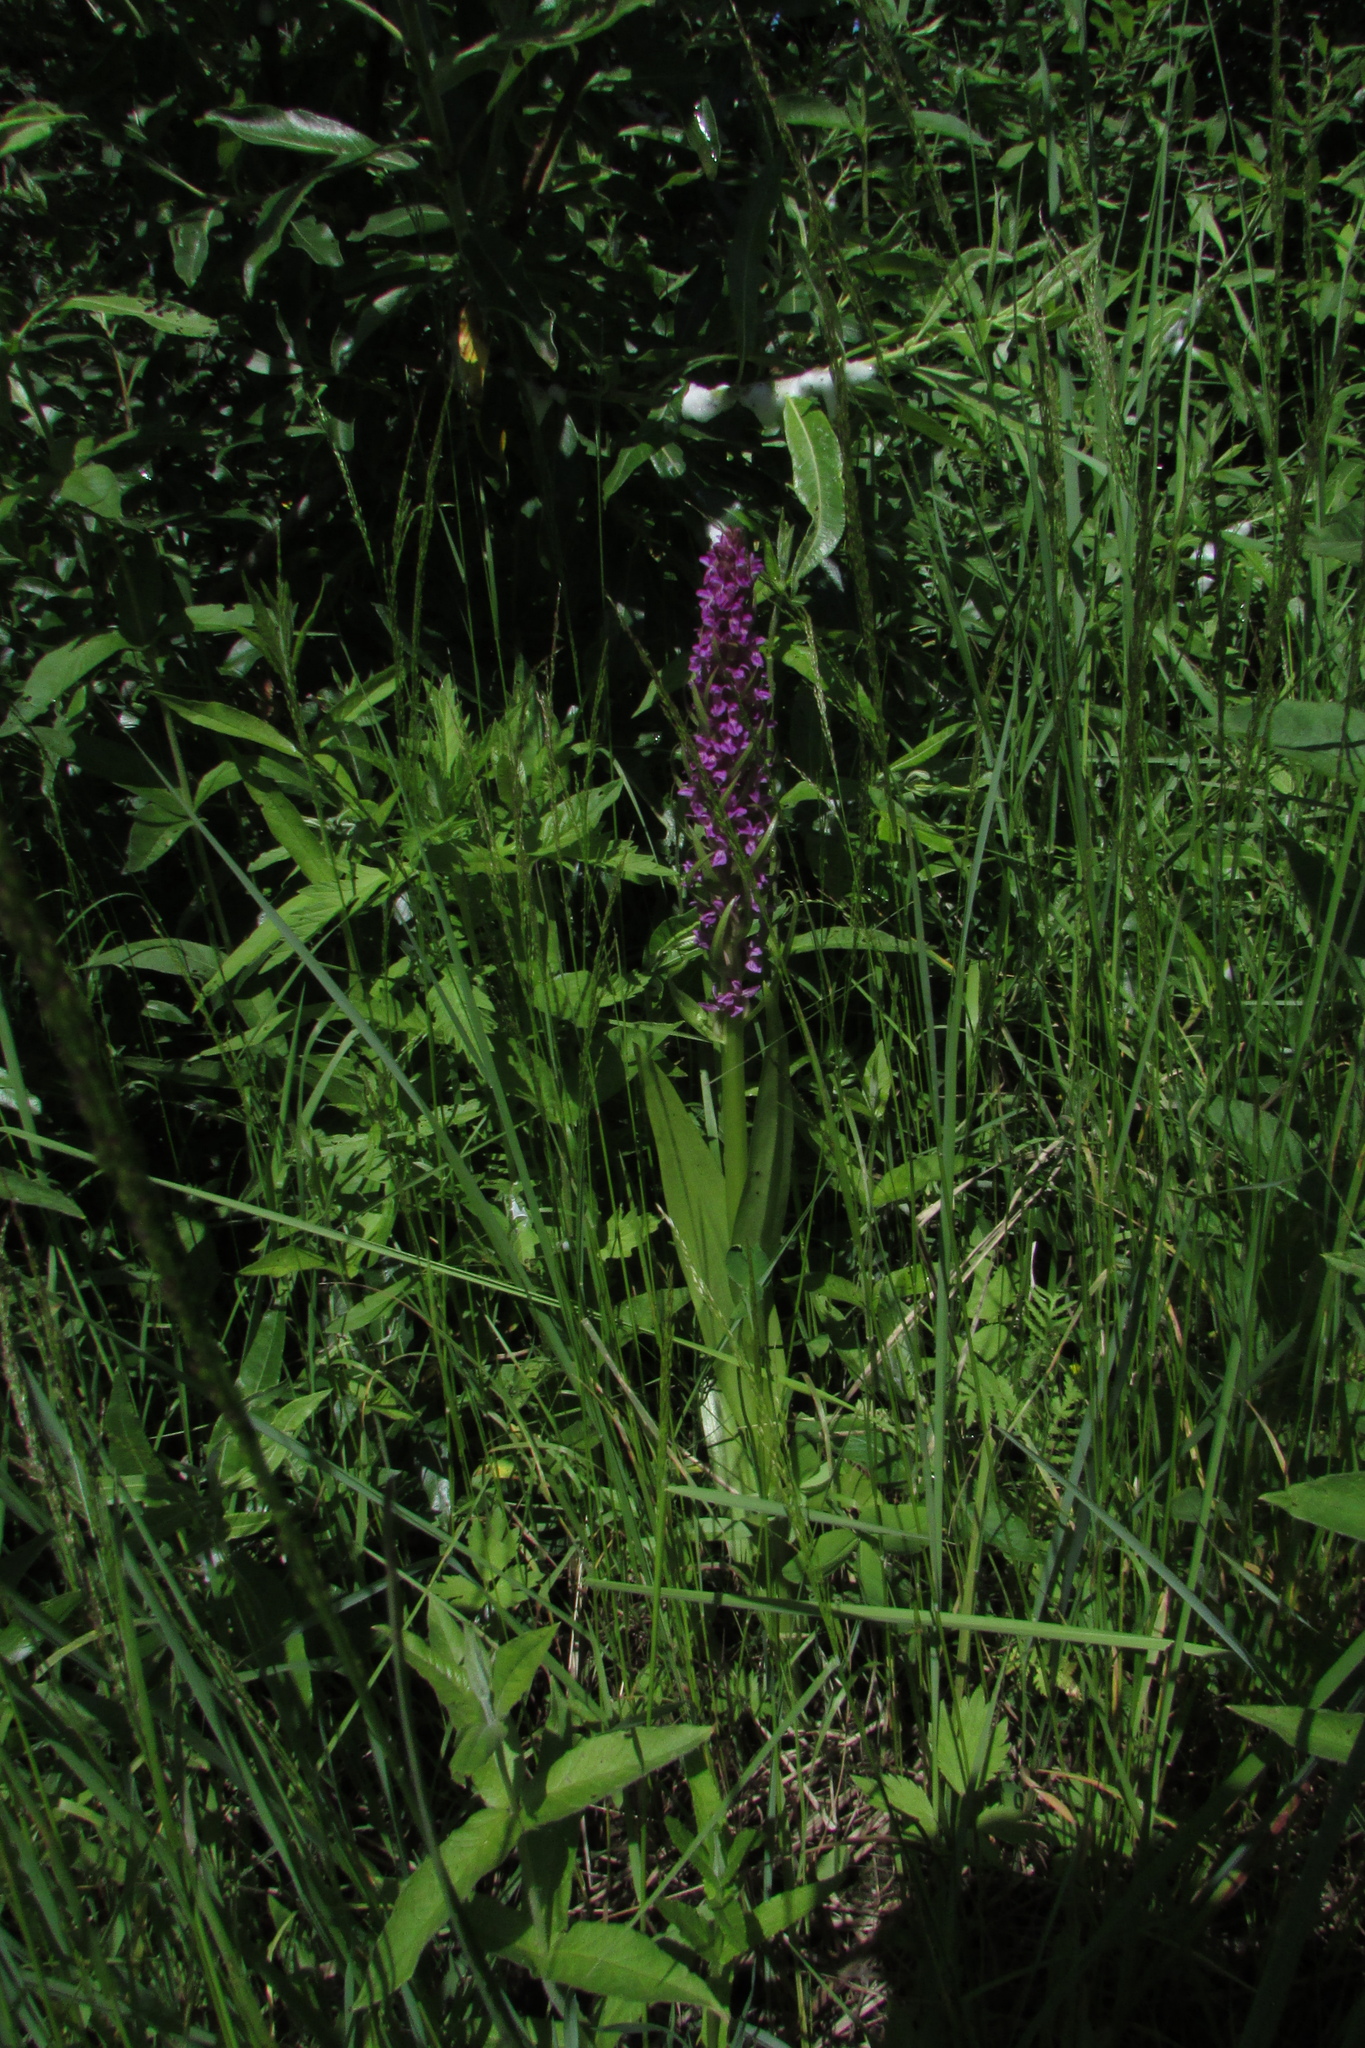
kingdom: Plantae
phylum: Tracheophyta
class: Liliopsida
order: Asparagales
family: Orchidaceae
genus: Dactylorhiza
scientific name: Dactylorhiza incarnata
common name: Early marsh-orchid
